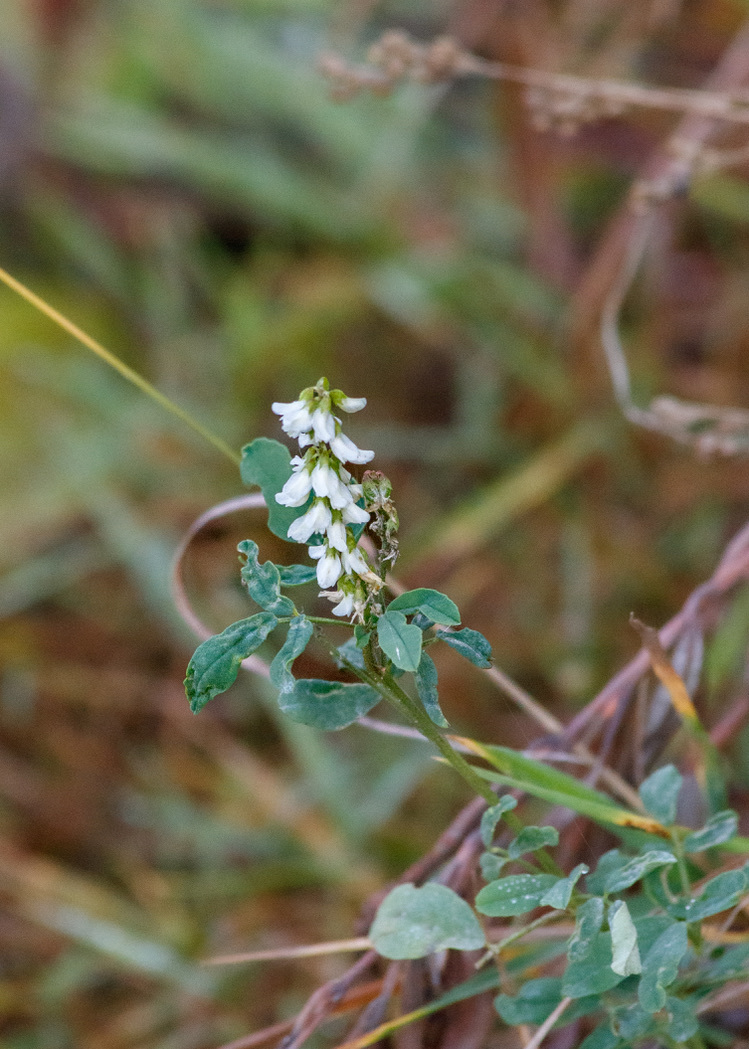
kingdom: Plantae
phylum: Tracheophyta
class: Magnoliopsida
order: Fabales
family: Fabaceae
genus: Melilotus
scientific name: Melilotus albus
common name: White melilot
